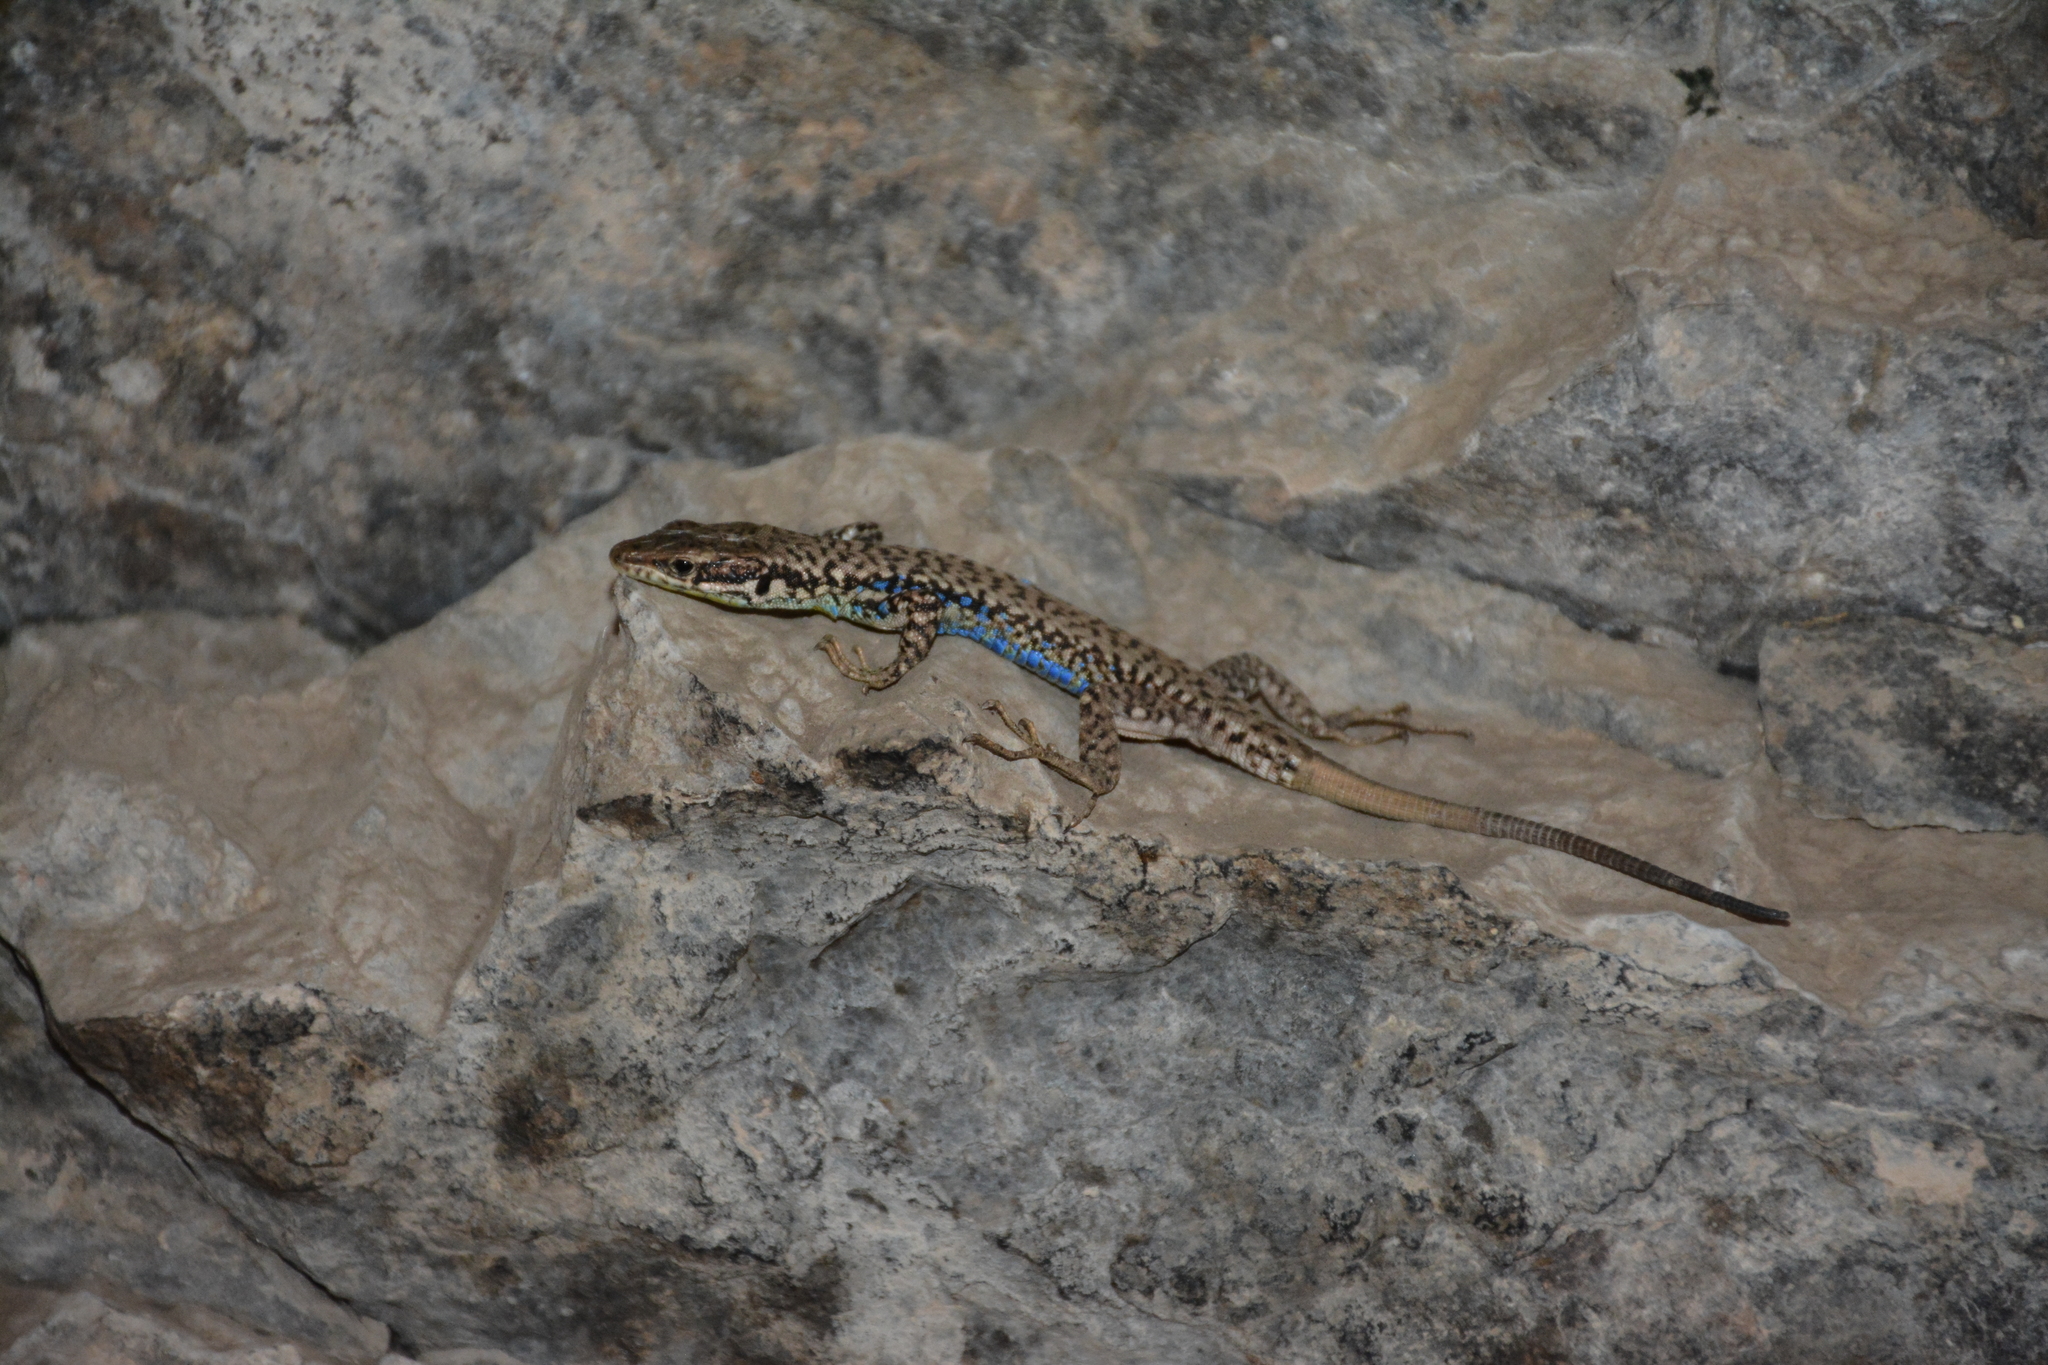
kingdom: Animalia
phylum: Chordata
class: Squamata
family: Lacertidae
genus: Darevskia
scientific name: Darevskia raddei
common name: Radde's lizard
